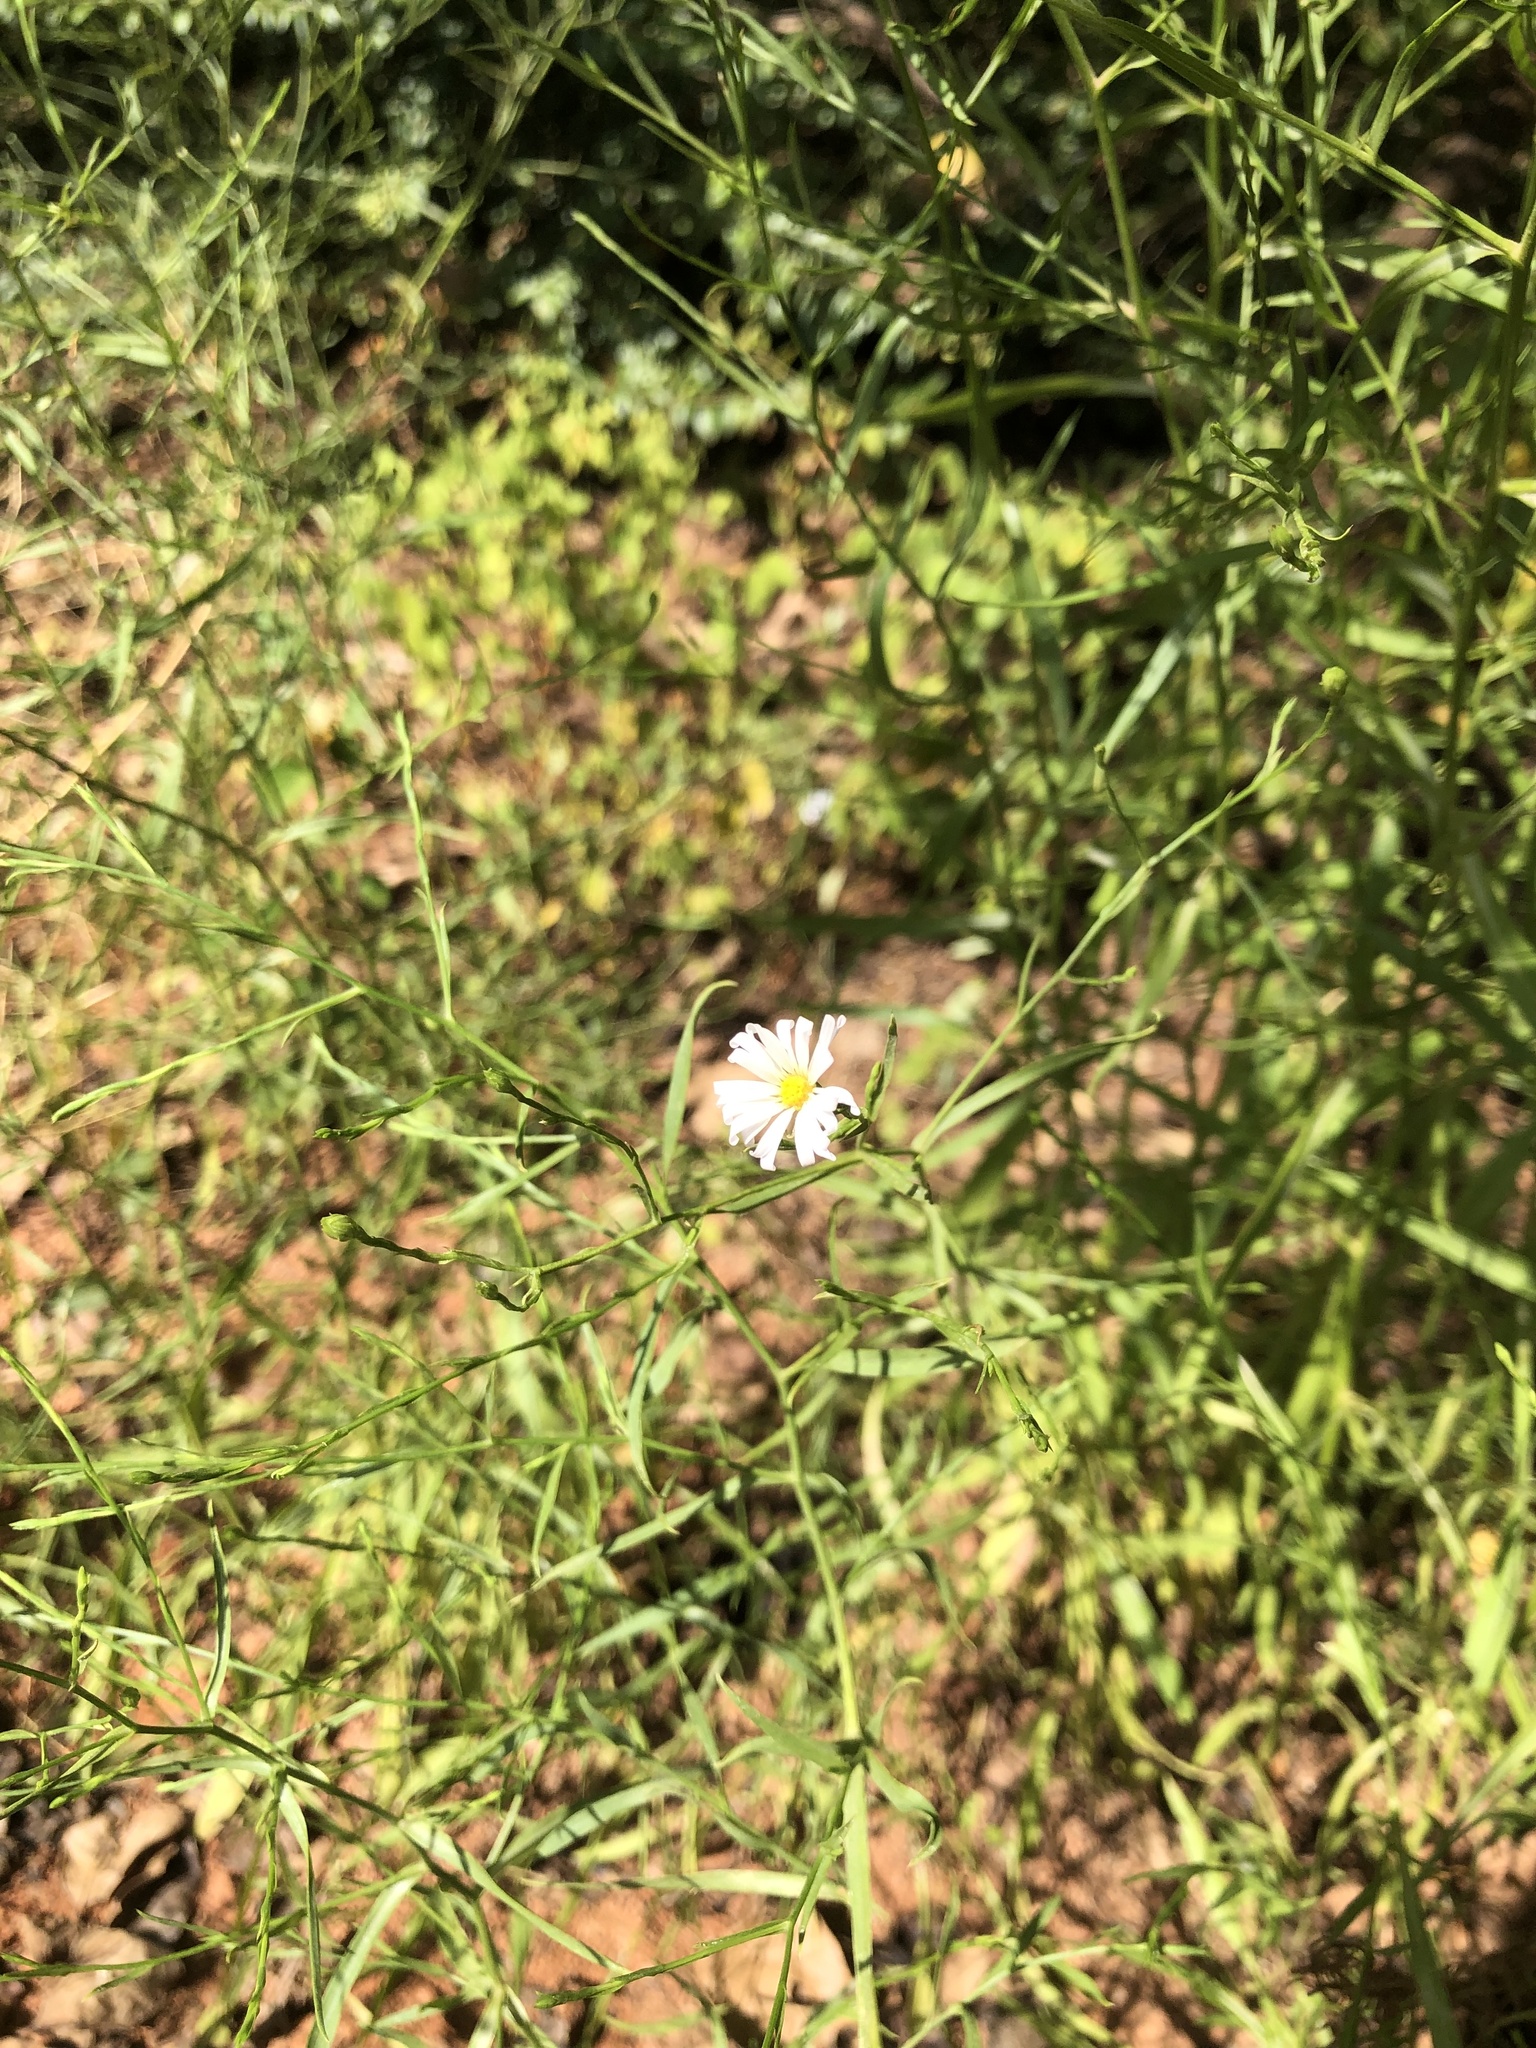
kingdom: Plantae
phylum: Tracheophyta
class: Magnoliopsida
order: Asterales
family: Asteraceae
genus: Symphyotrichum
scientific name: Symphyotrichum subulatum
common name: Annual saltmarsh aster
